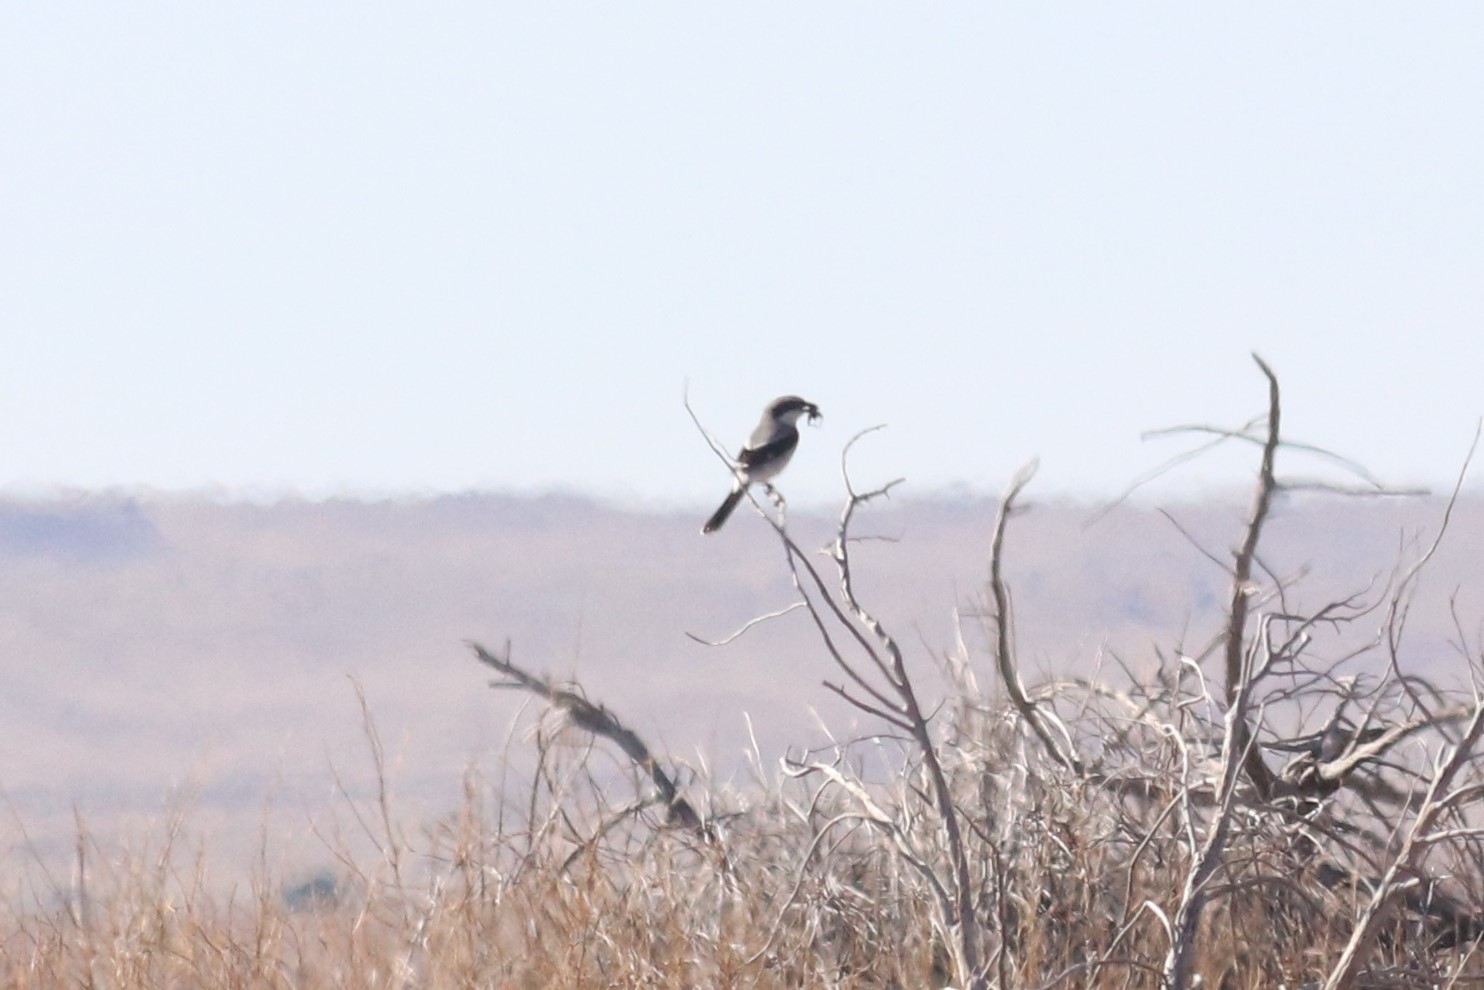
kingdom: Animalia
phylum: Chordata
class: Aves
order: Passeriformes
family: Laniidae
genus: Lanius
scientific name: Lanius ludovicianus
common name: Loggerhead shrike
